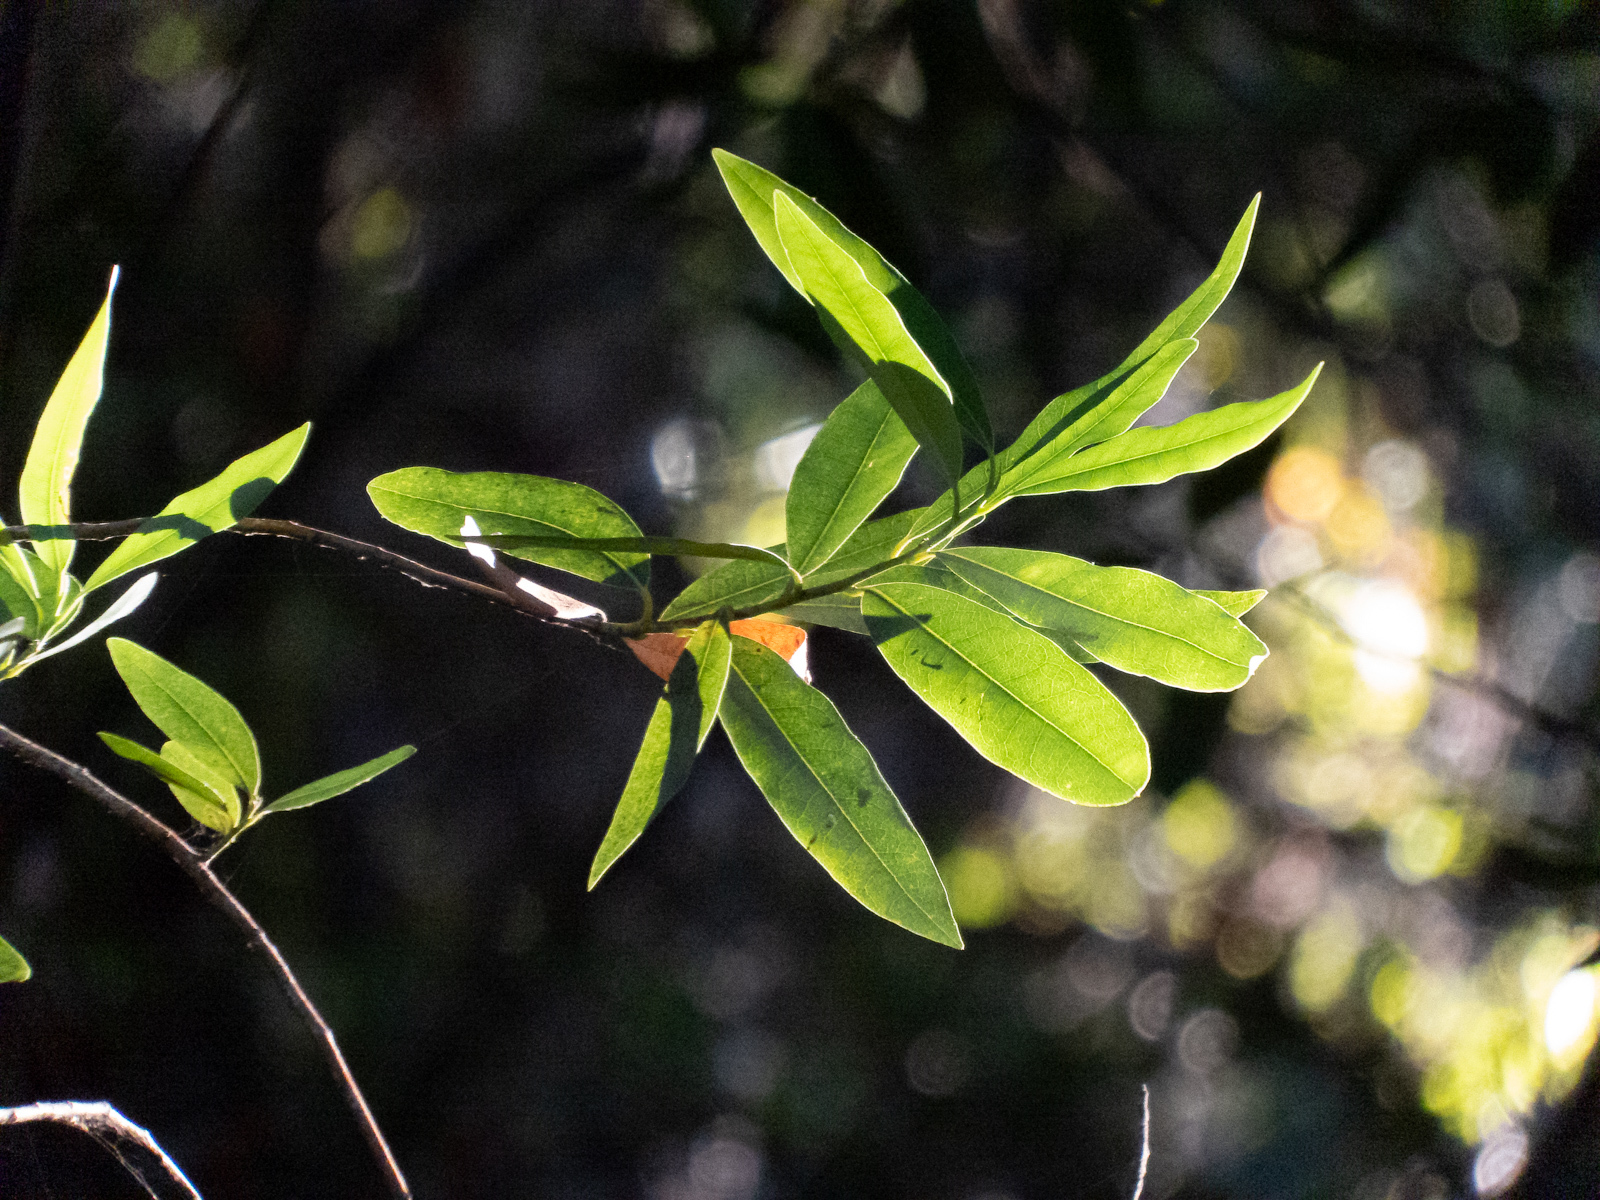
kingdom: Plantae
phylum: Tracheophyta
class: Magnoliopsida
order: Laurales
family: Lauraceae
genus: Umbellularia
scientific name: Umbellularia californica
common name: California bay
